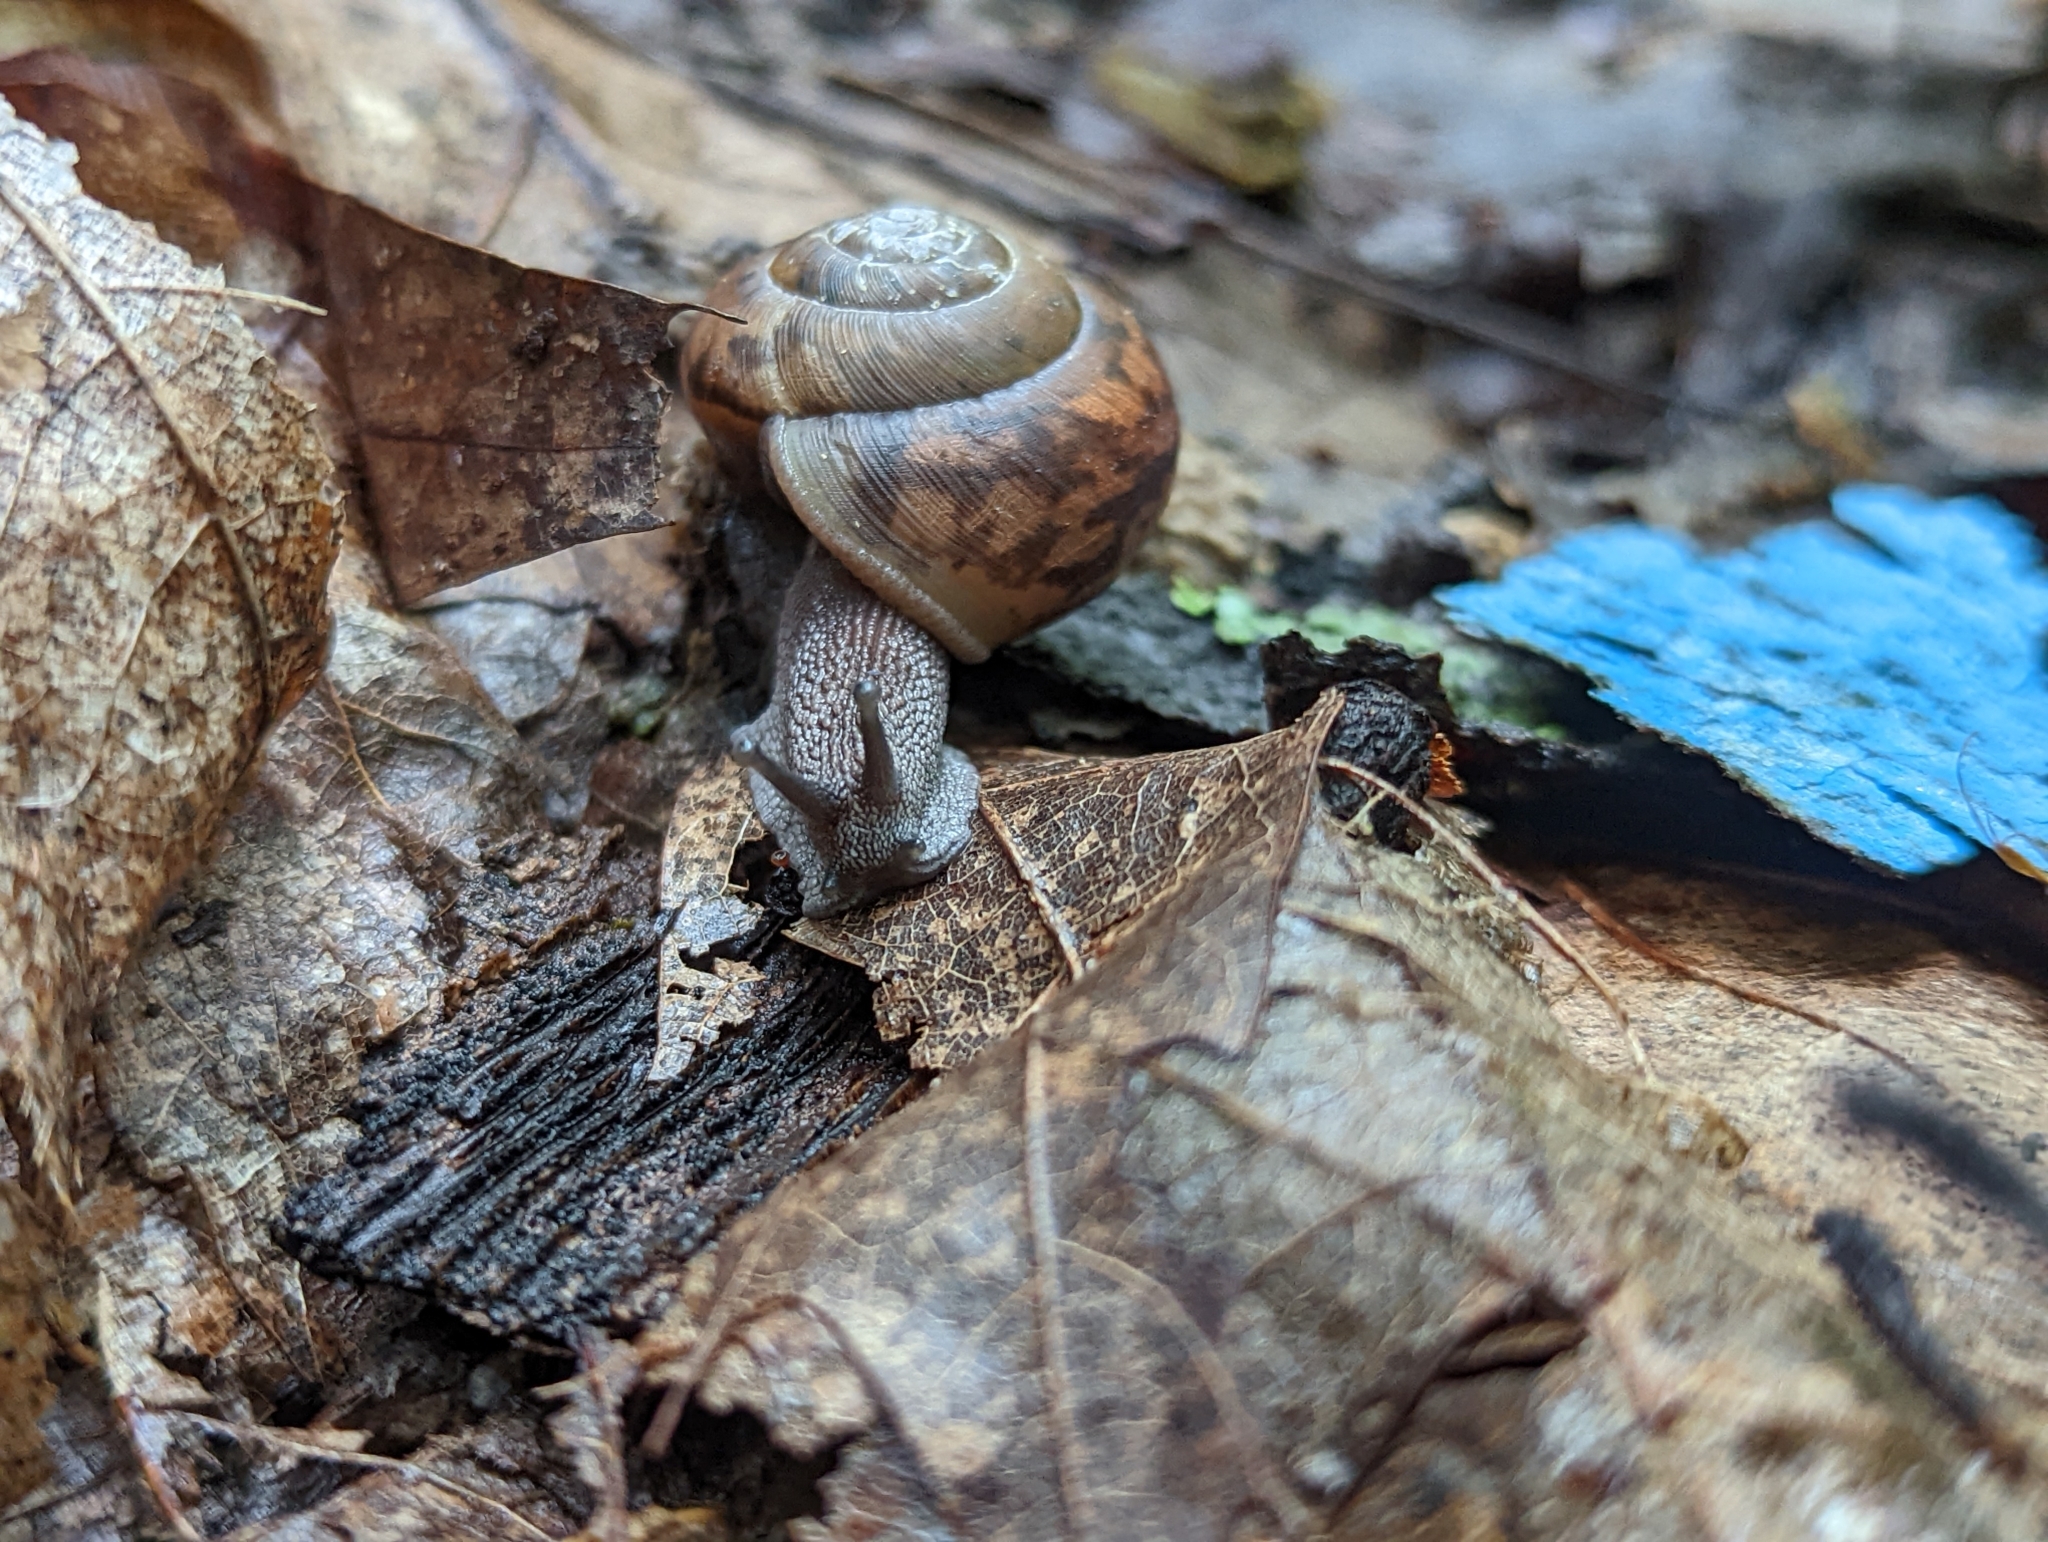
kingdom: Animalia
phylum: Mollusca
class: Gastropoda
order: Stylommatophora
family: Polygyridae
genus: Mesodon
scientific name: Mesodon thyroidus
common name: White-lip globe
